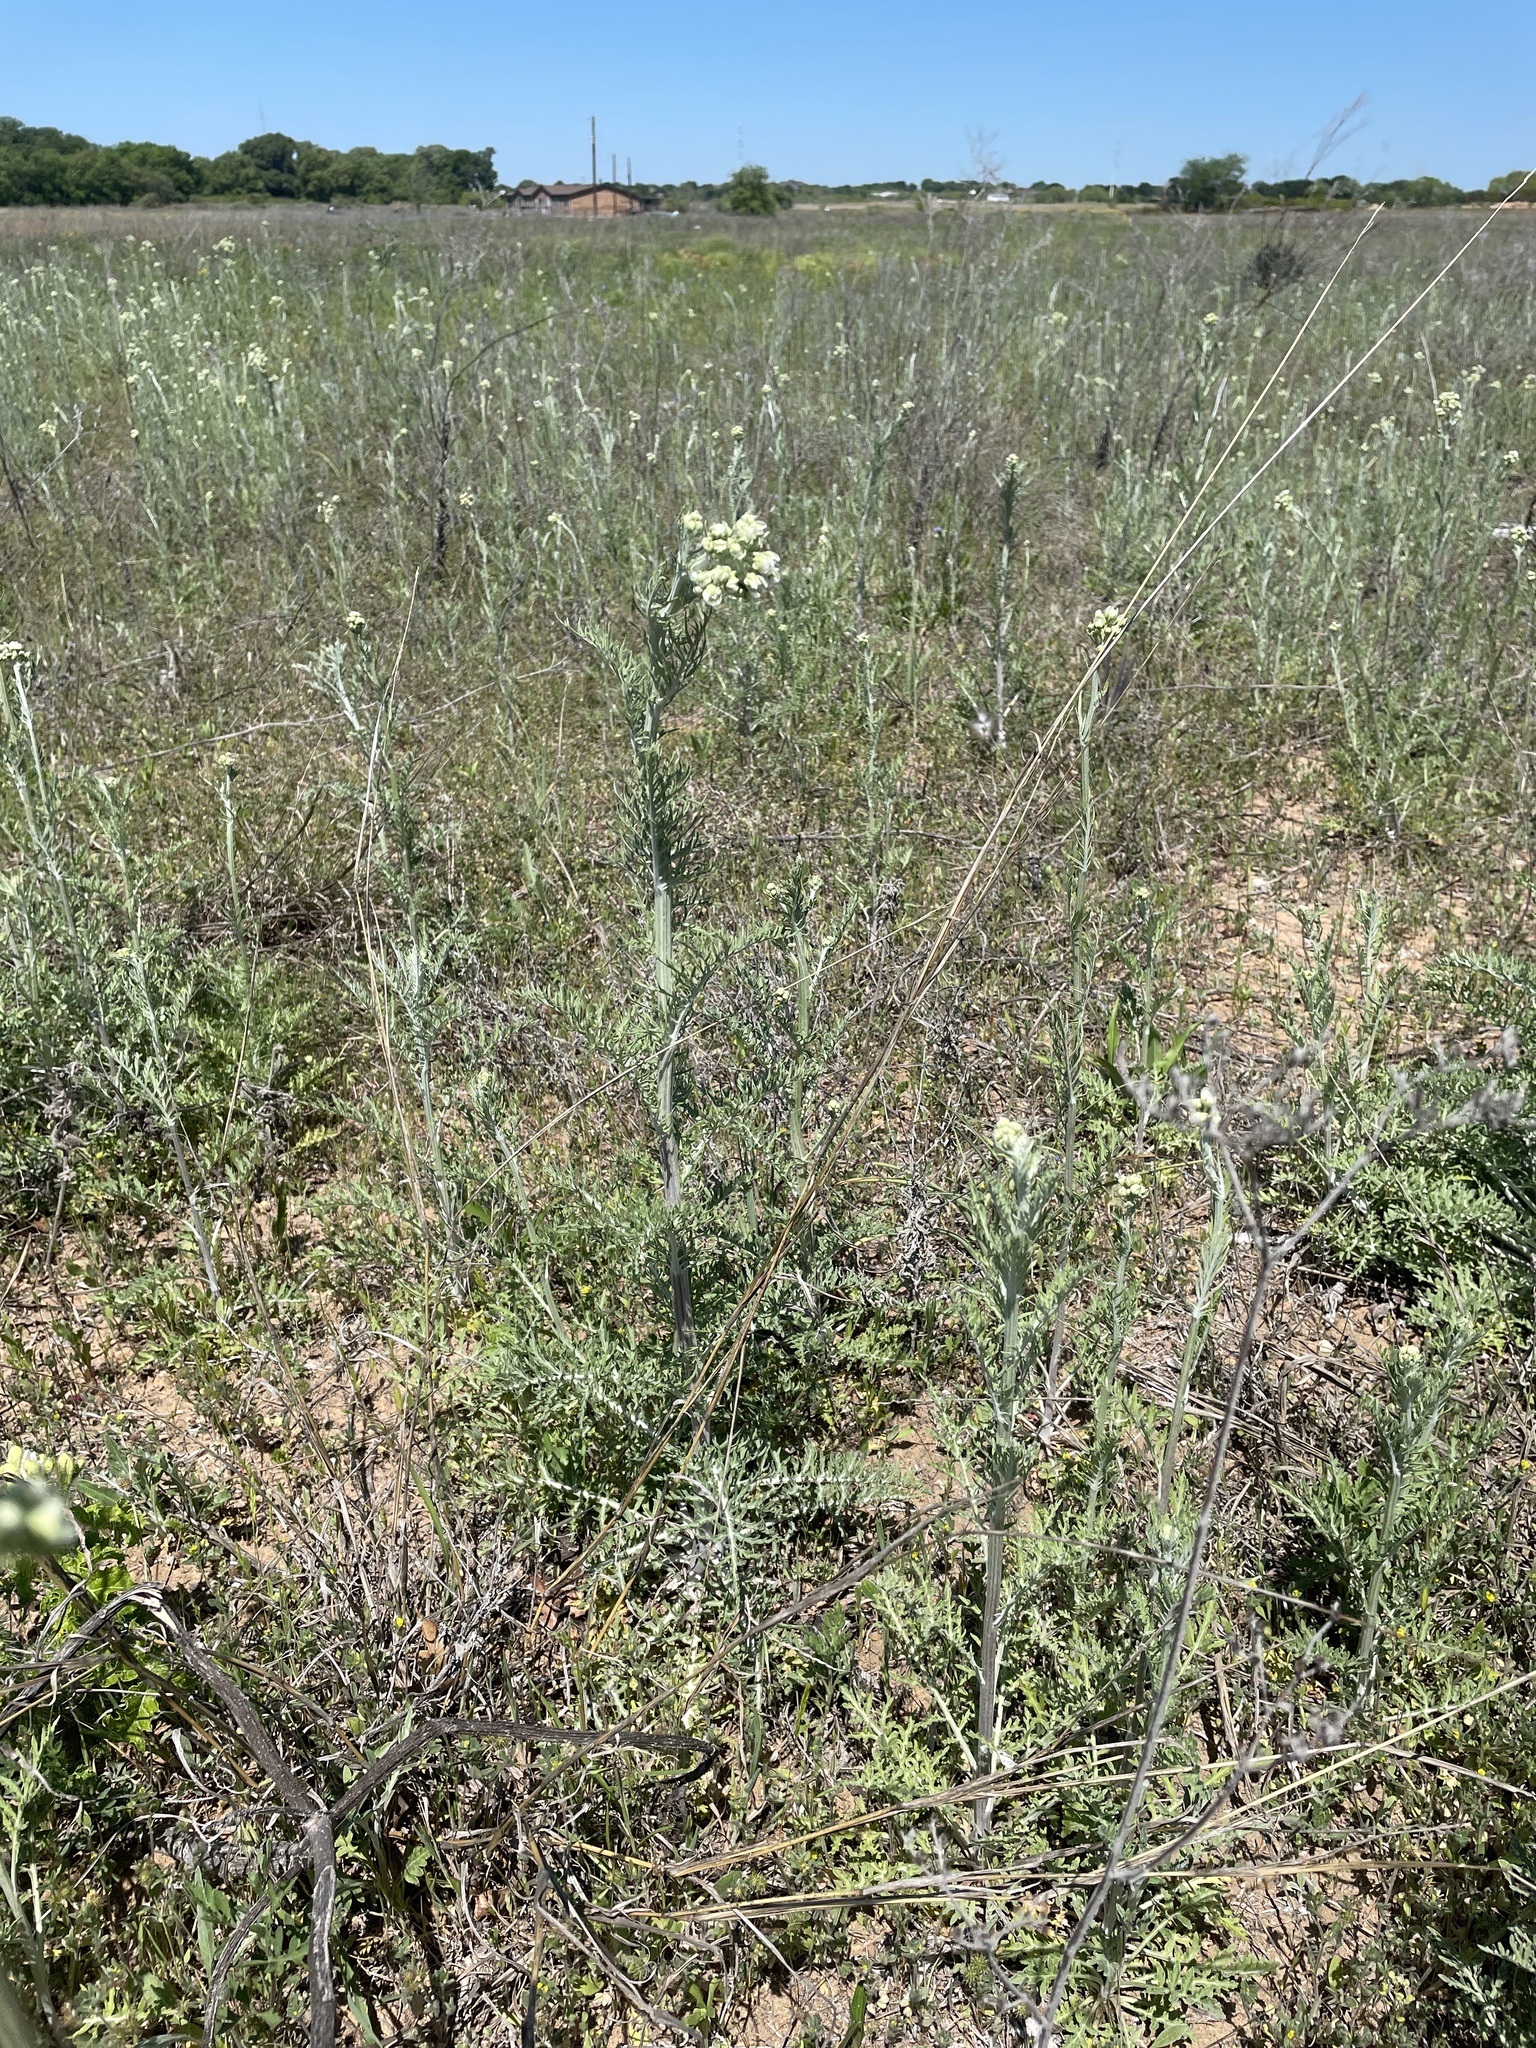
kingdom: Plantae
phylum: Tracheophyta
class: Magnoliopsida
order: Asterales
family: Asteraceae
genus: Hymenopappus
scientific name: Hymenopappus scabiosaeus
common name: Carolina woollywhite
